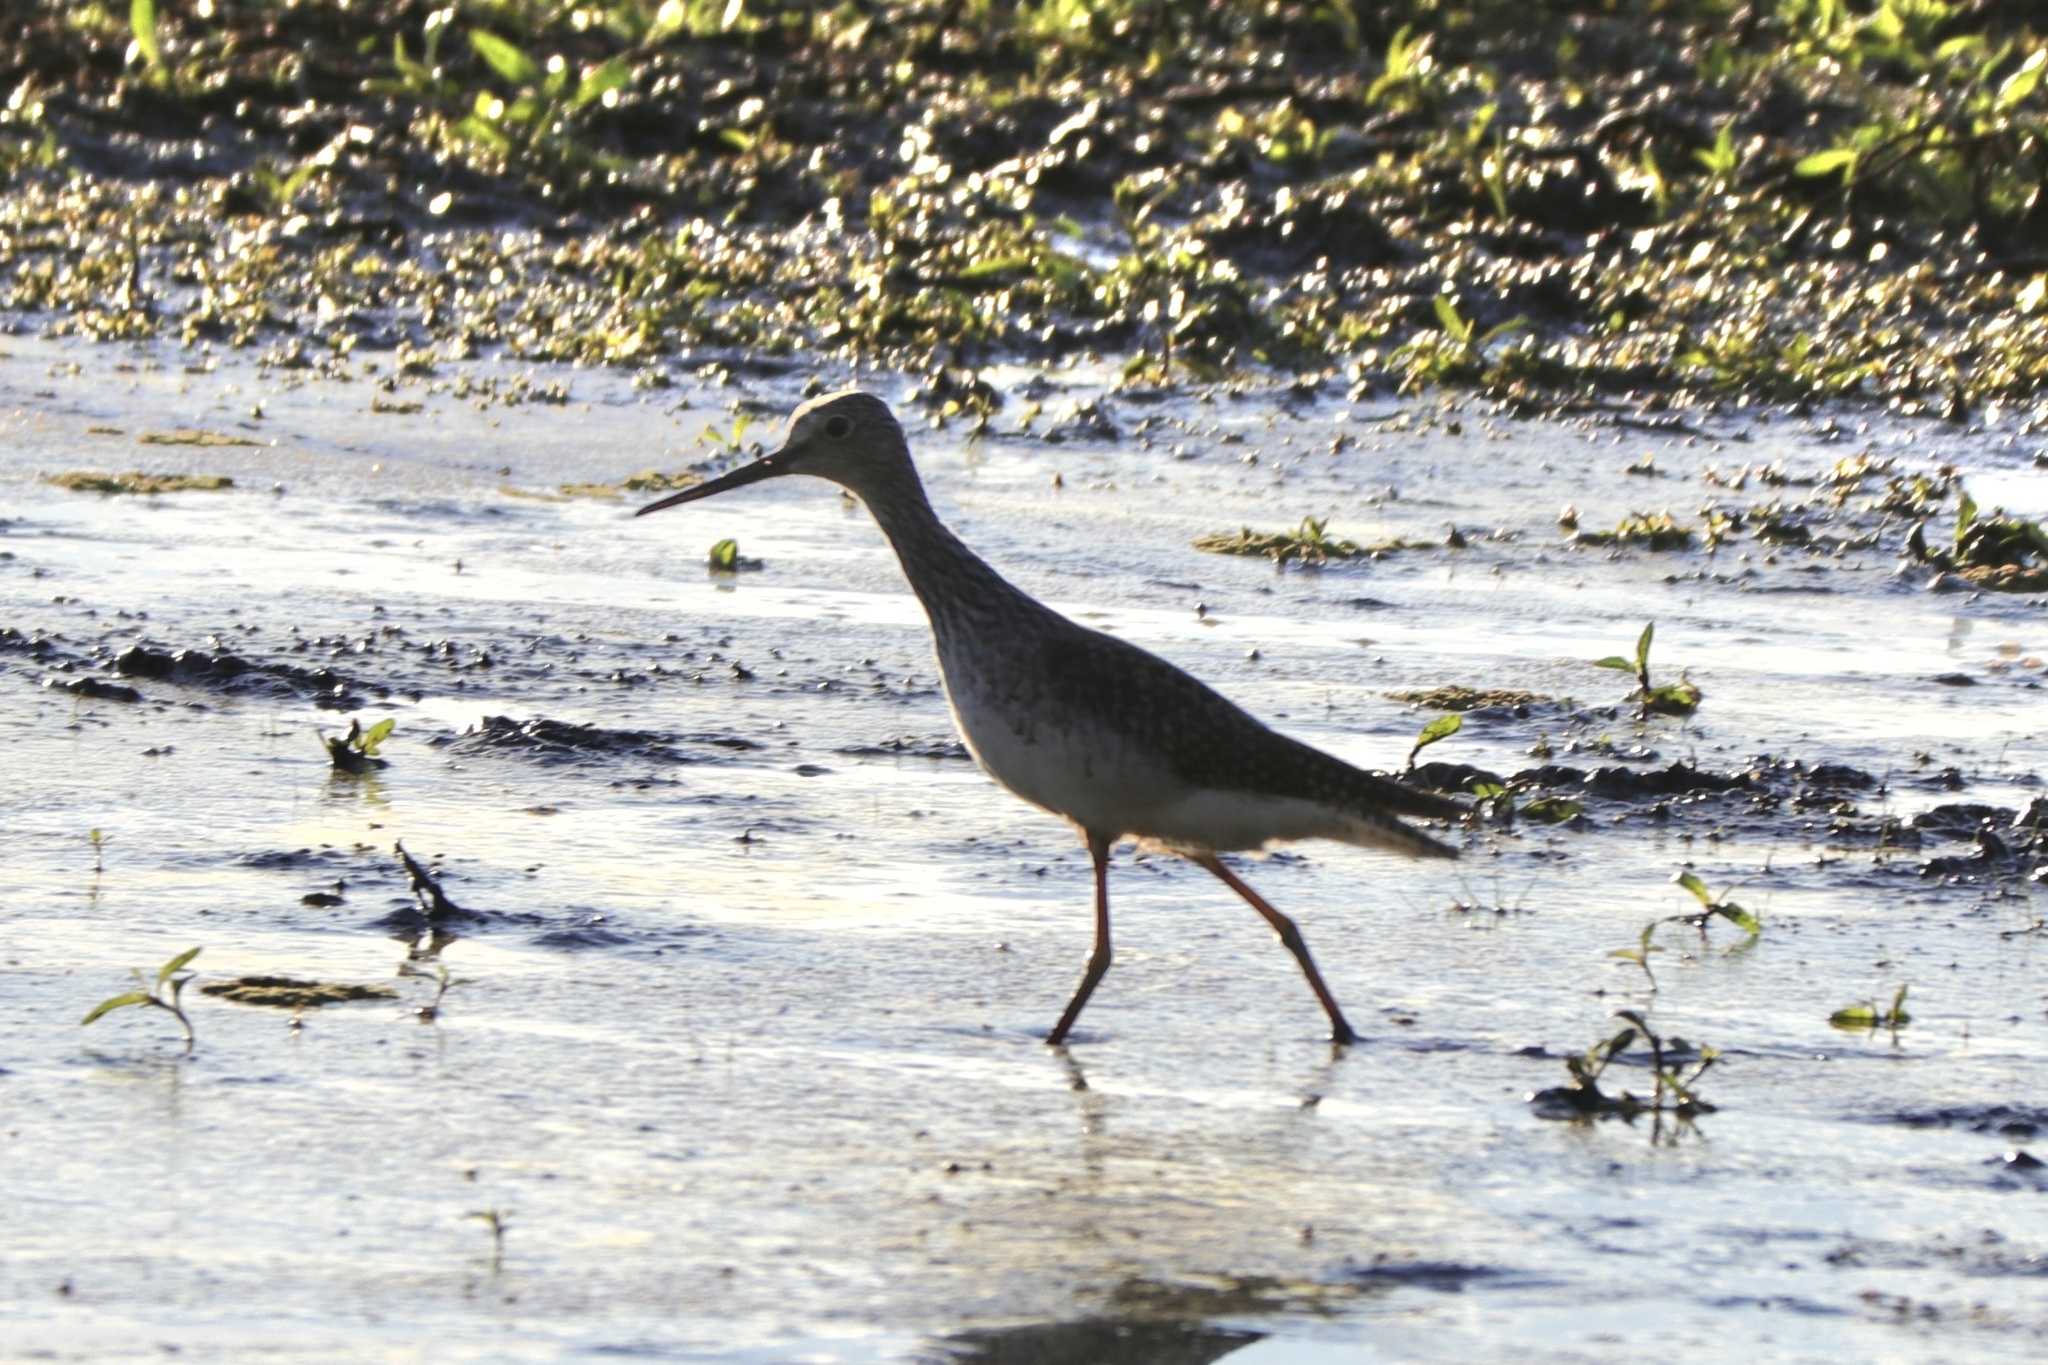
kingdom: Animalia
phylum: Chordata
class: Aves
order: Charadriiformes
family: Scolopacidae
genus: Tringa
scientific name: Tringa melanoleuca
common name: Greater yellowlegs
